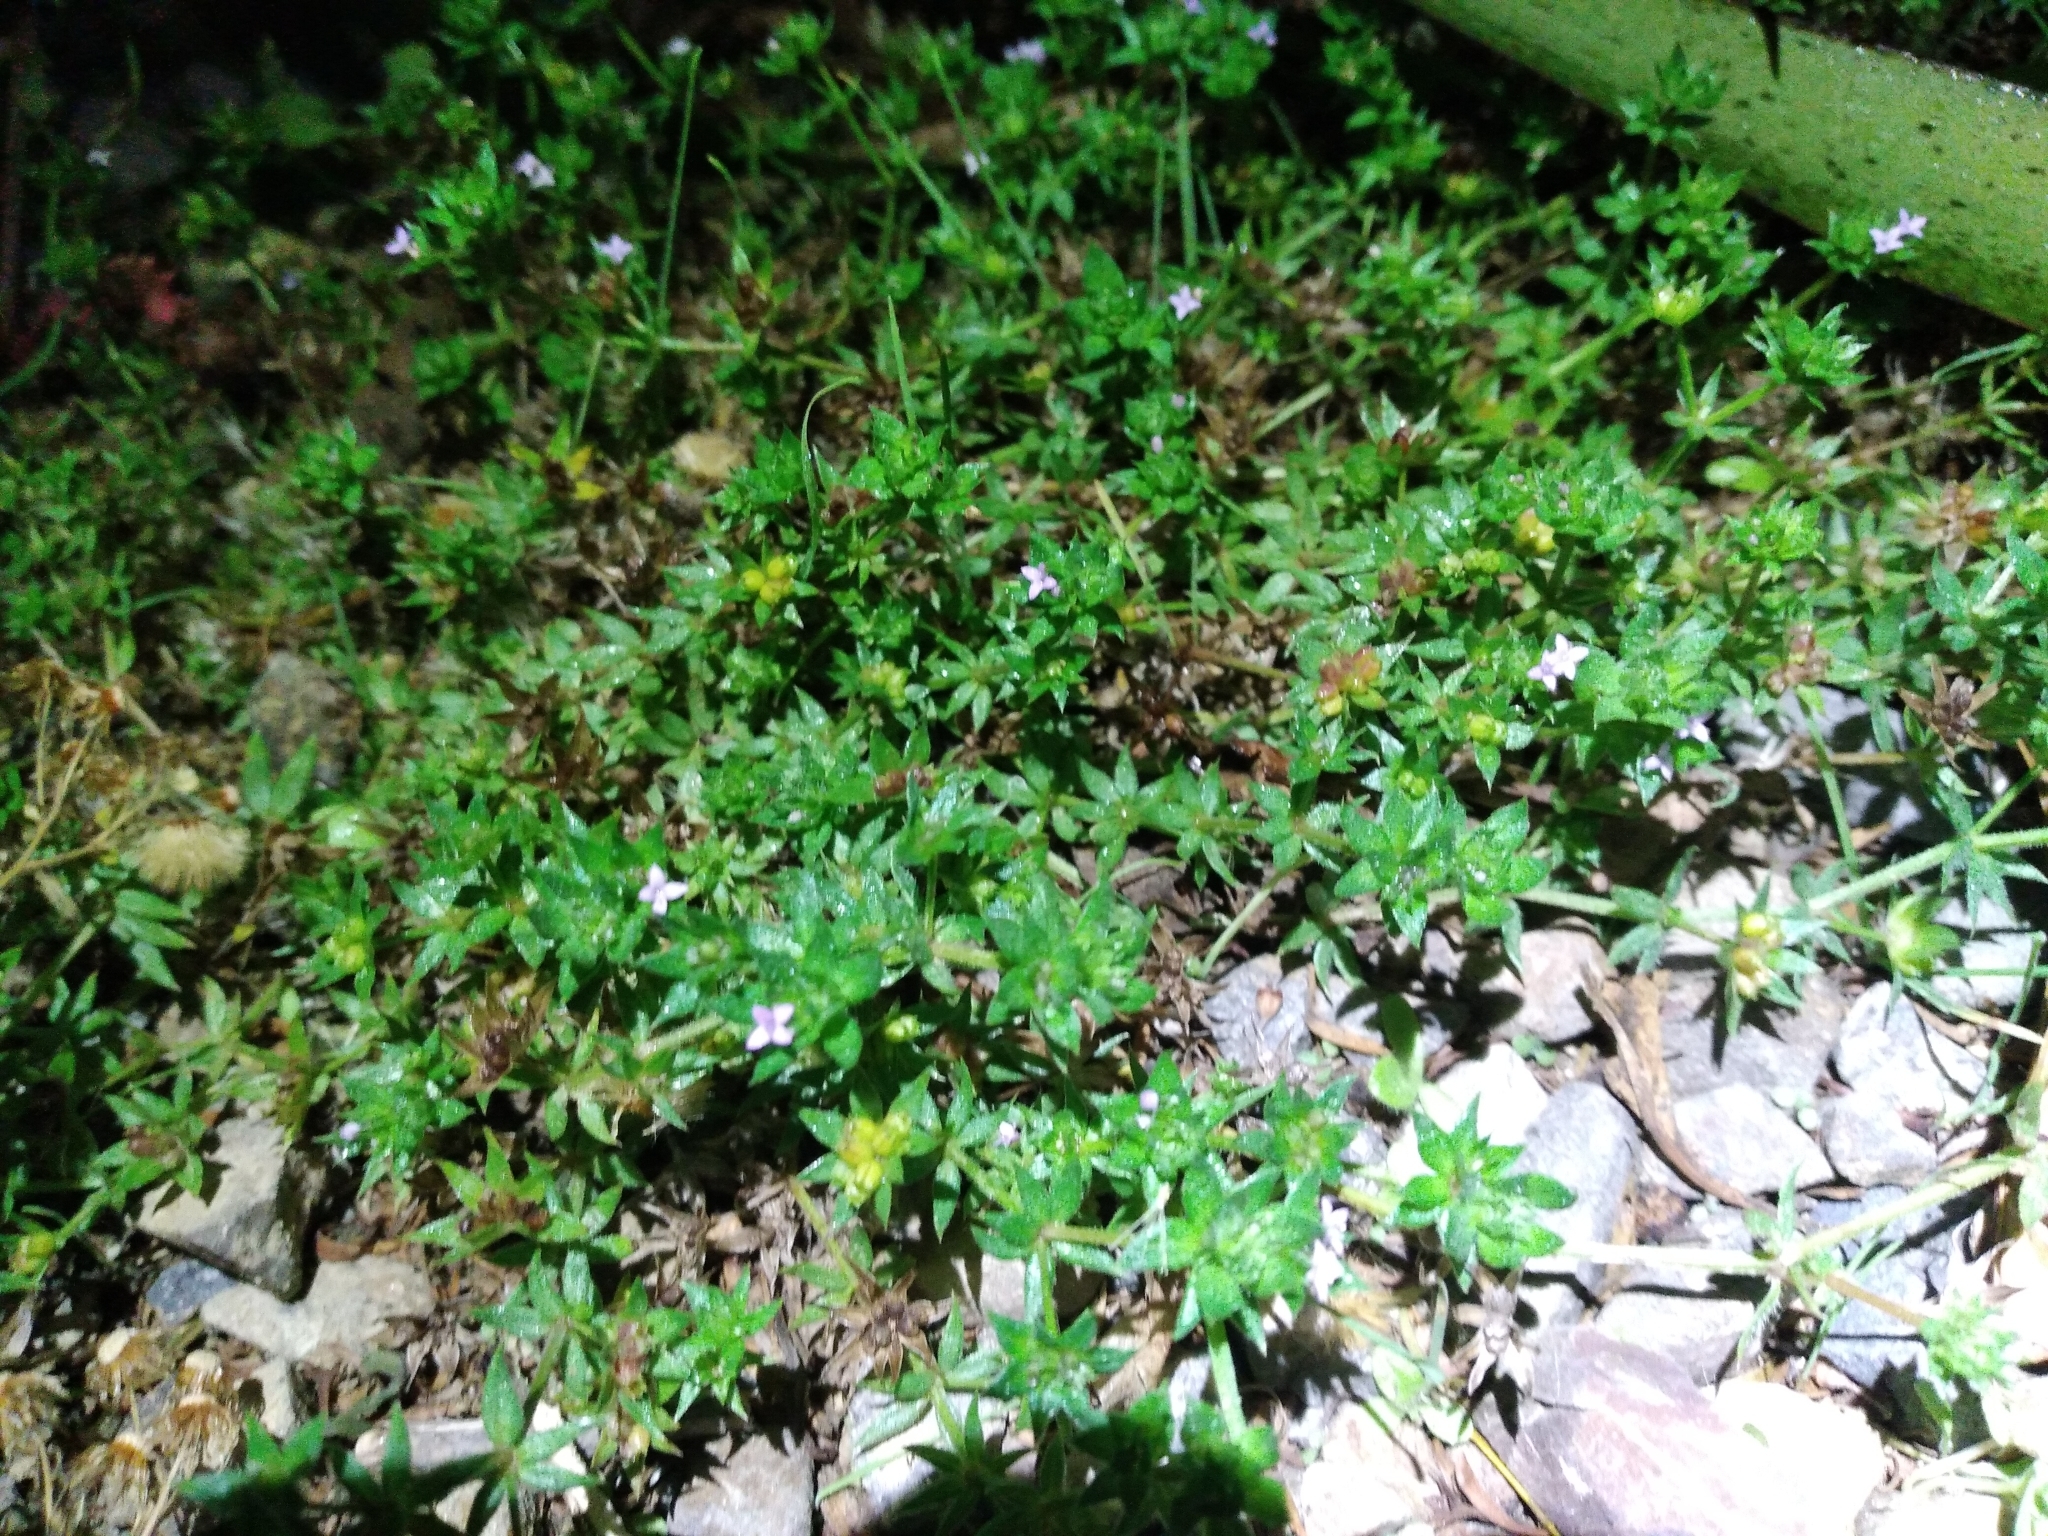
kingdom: Plantae
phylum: Tracheophyta
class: Magnoliopsida
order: Gentianales
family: Rubiaceae
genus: Sherardia
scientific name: Sherardia arvensis
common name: Field madder
